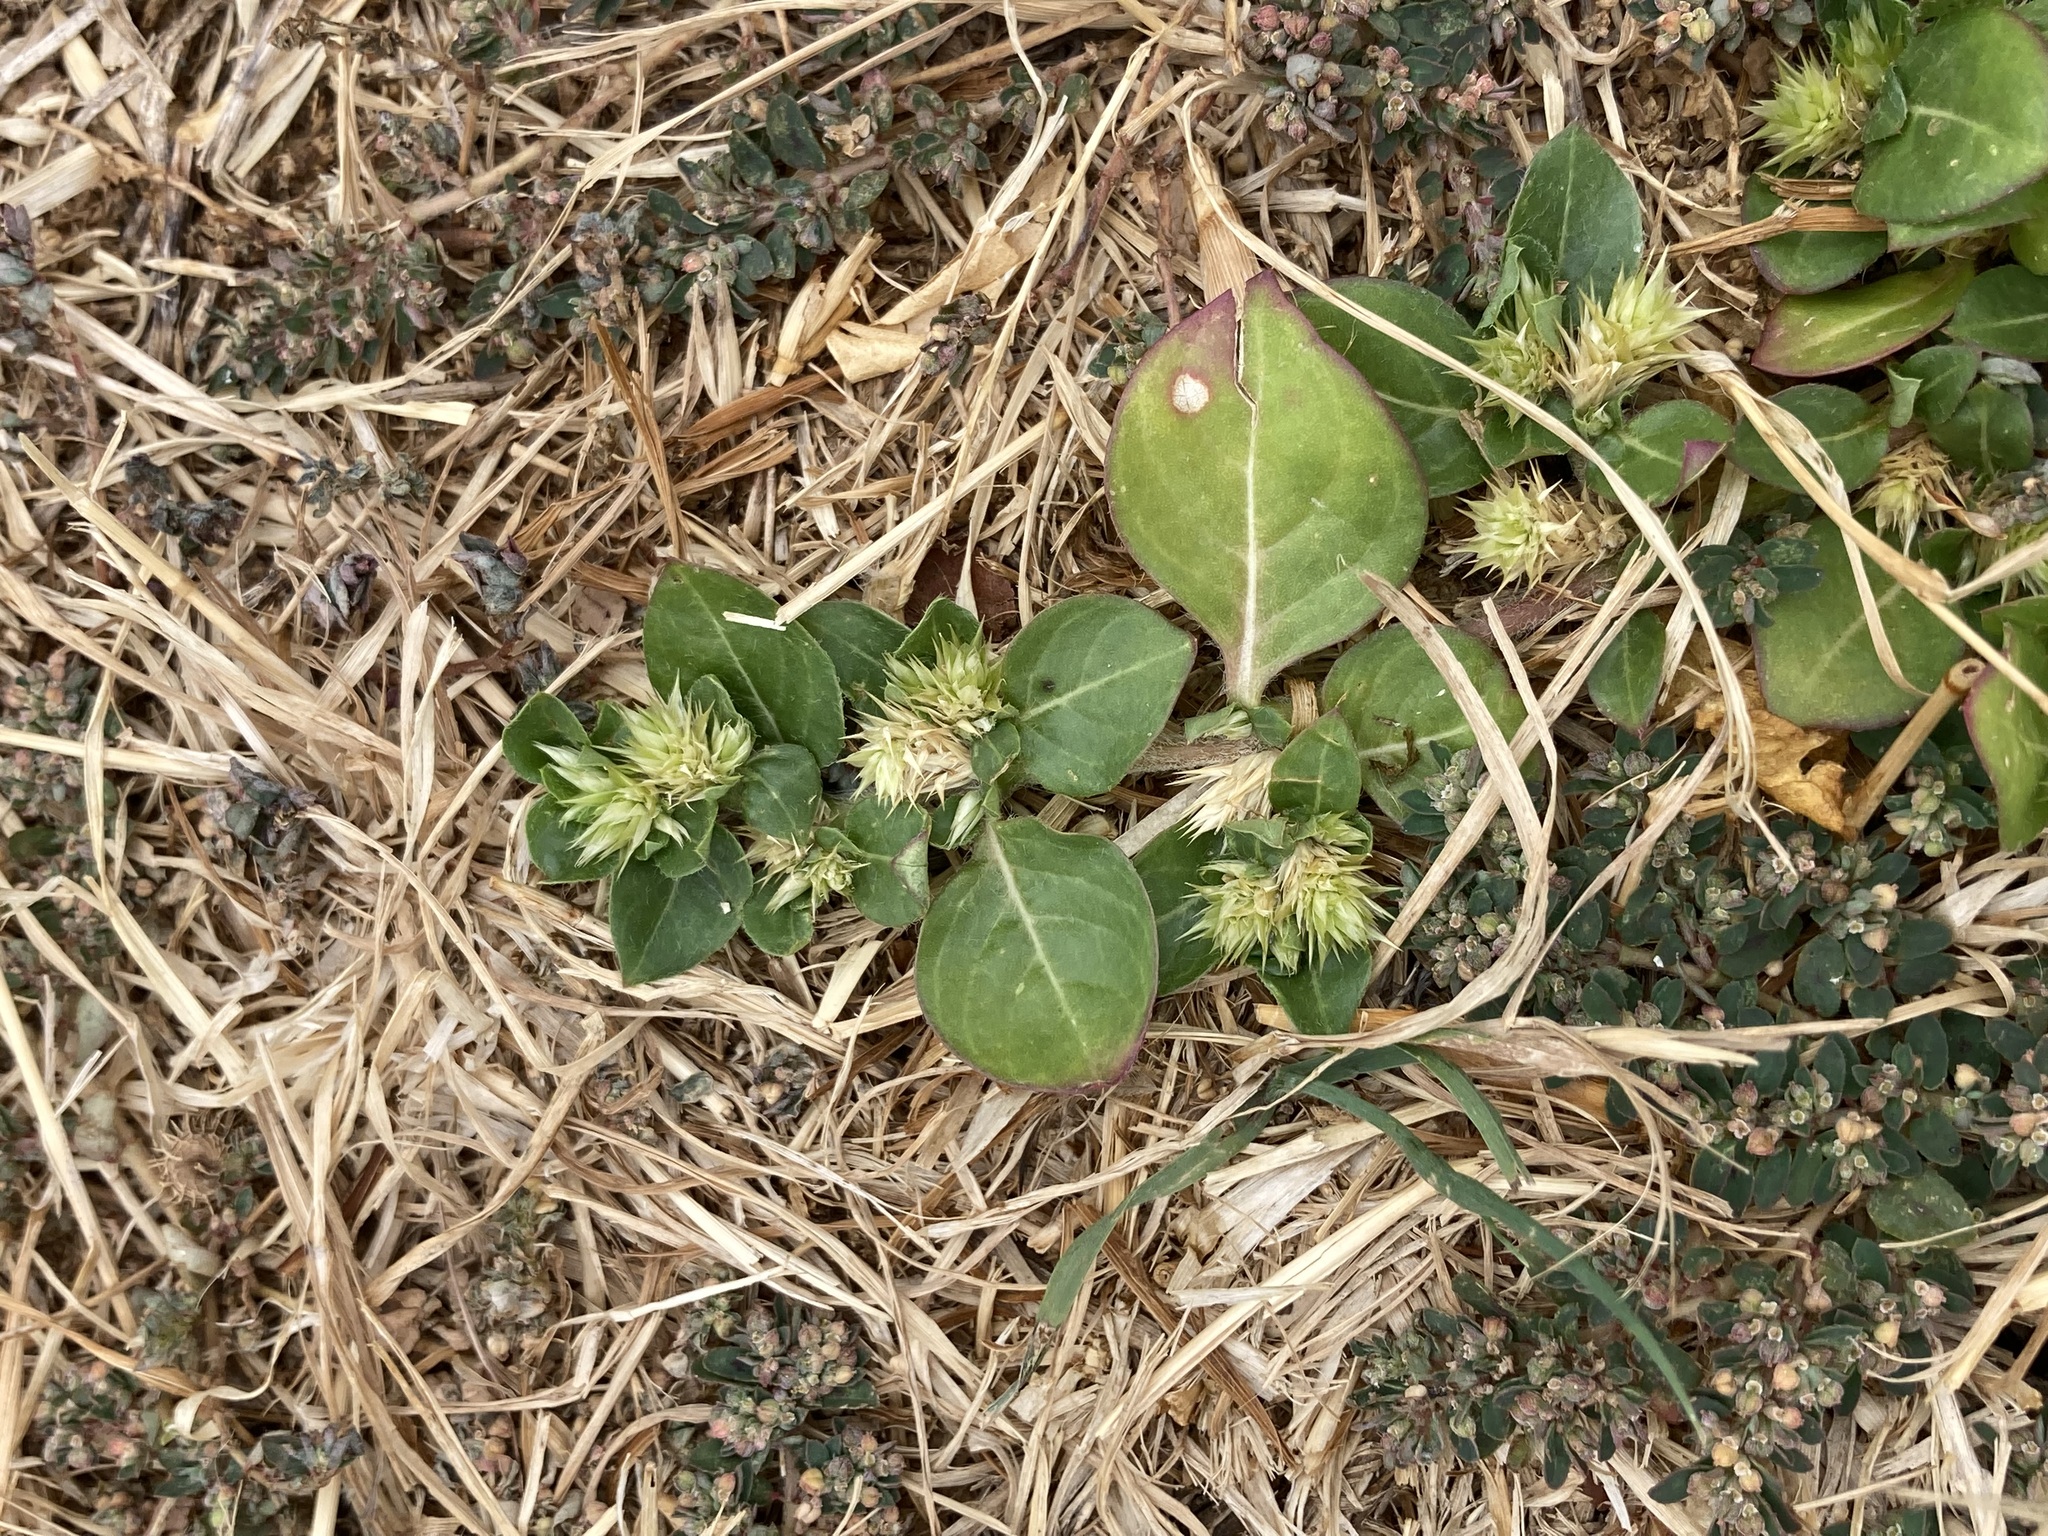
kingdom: Plantae
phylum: Tracheophyta
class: Magnoliopsida
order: Caryophyllales
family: Amaranthaceae
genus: Alternanthera
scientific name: Alternanthera pungens
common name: Khakiweed
